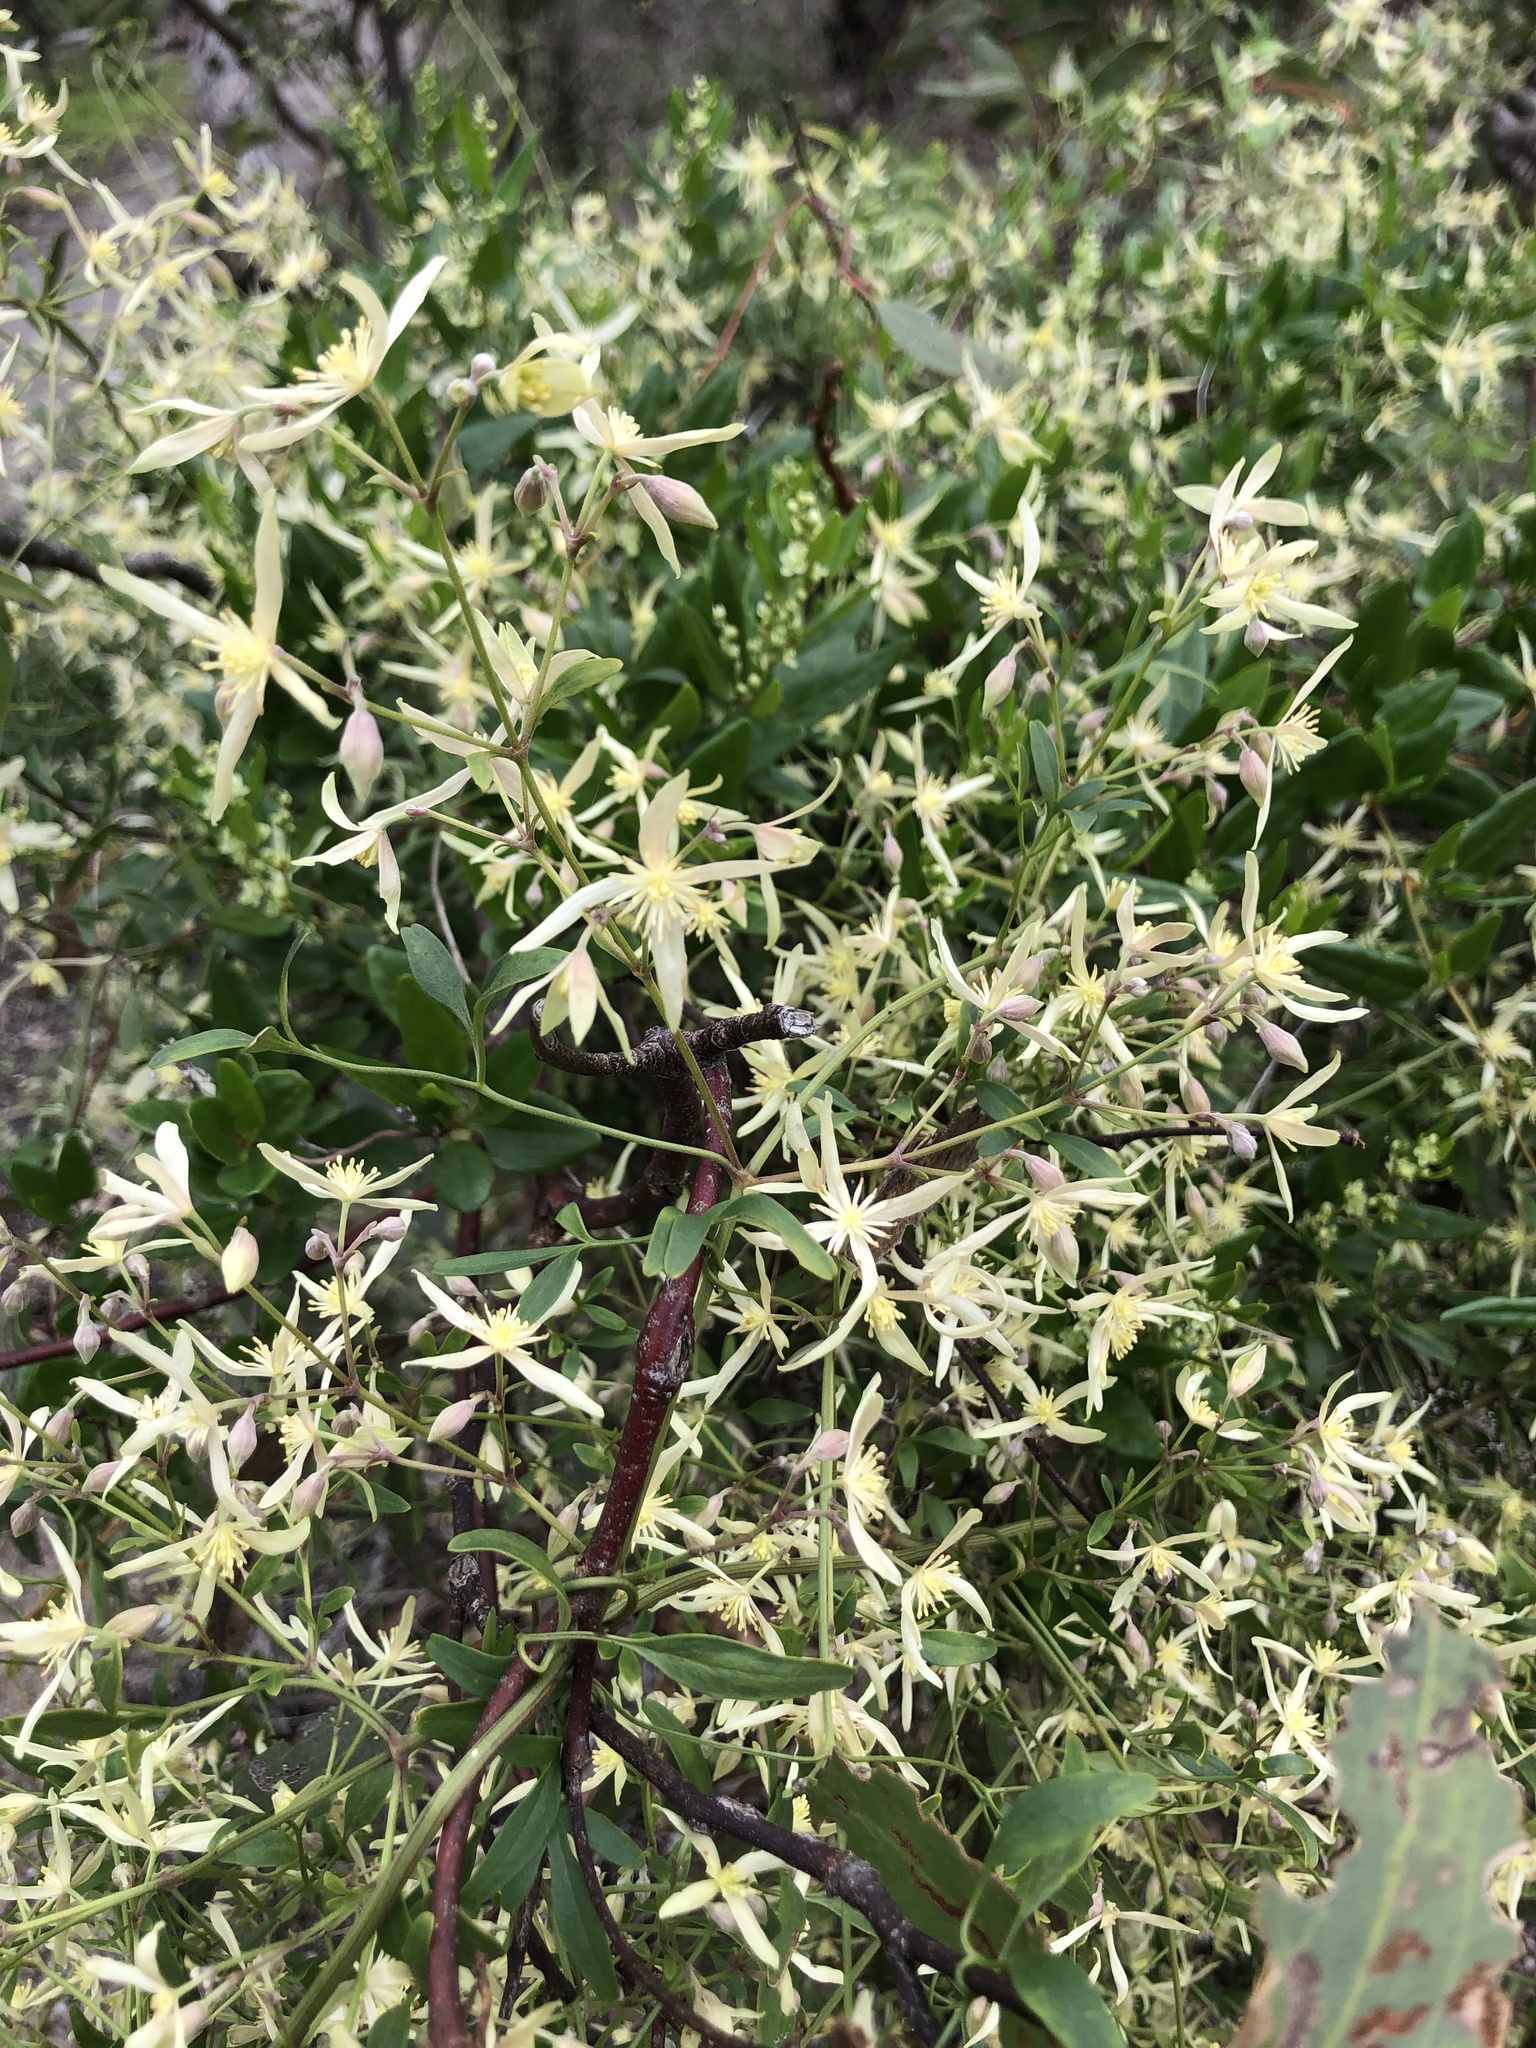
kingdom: Plantae
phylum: Tracheophyta
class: Magnoliopsida
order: Ranunculales
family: Ranunculaceae
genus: Clematis
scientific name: Clematis microphylla
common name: Headachevine
